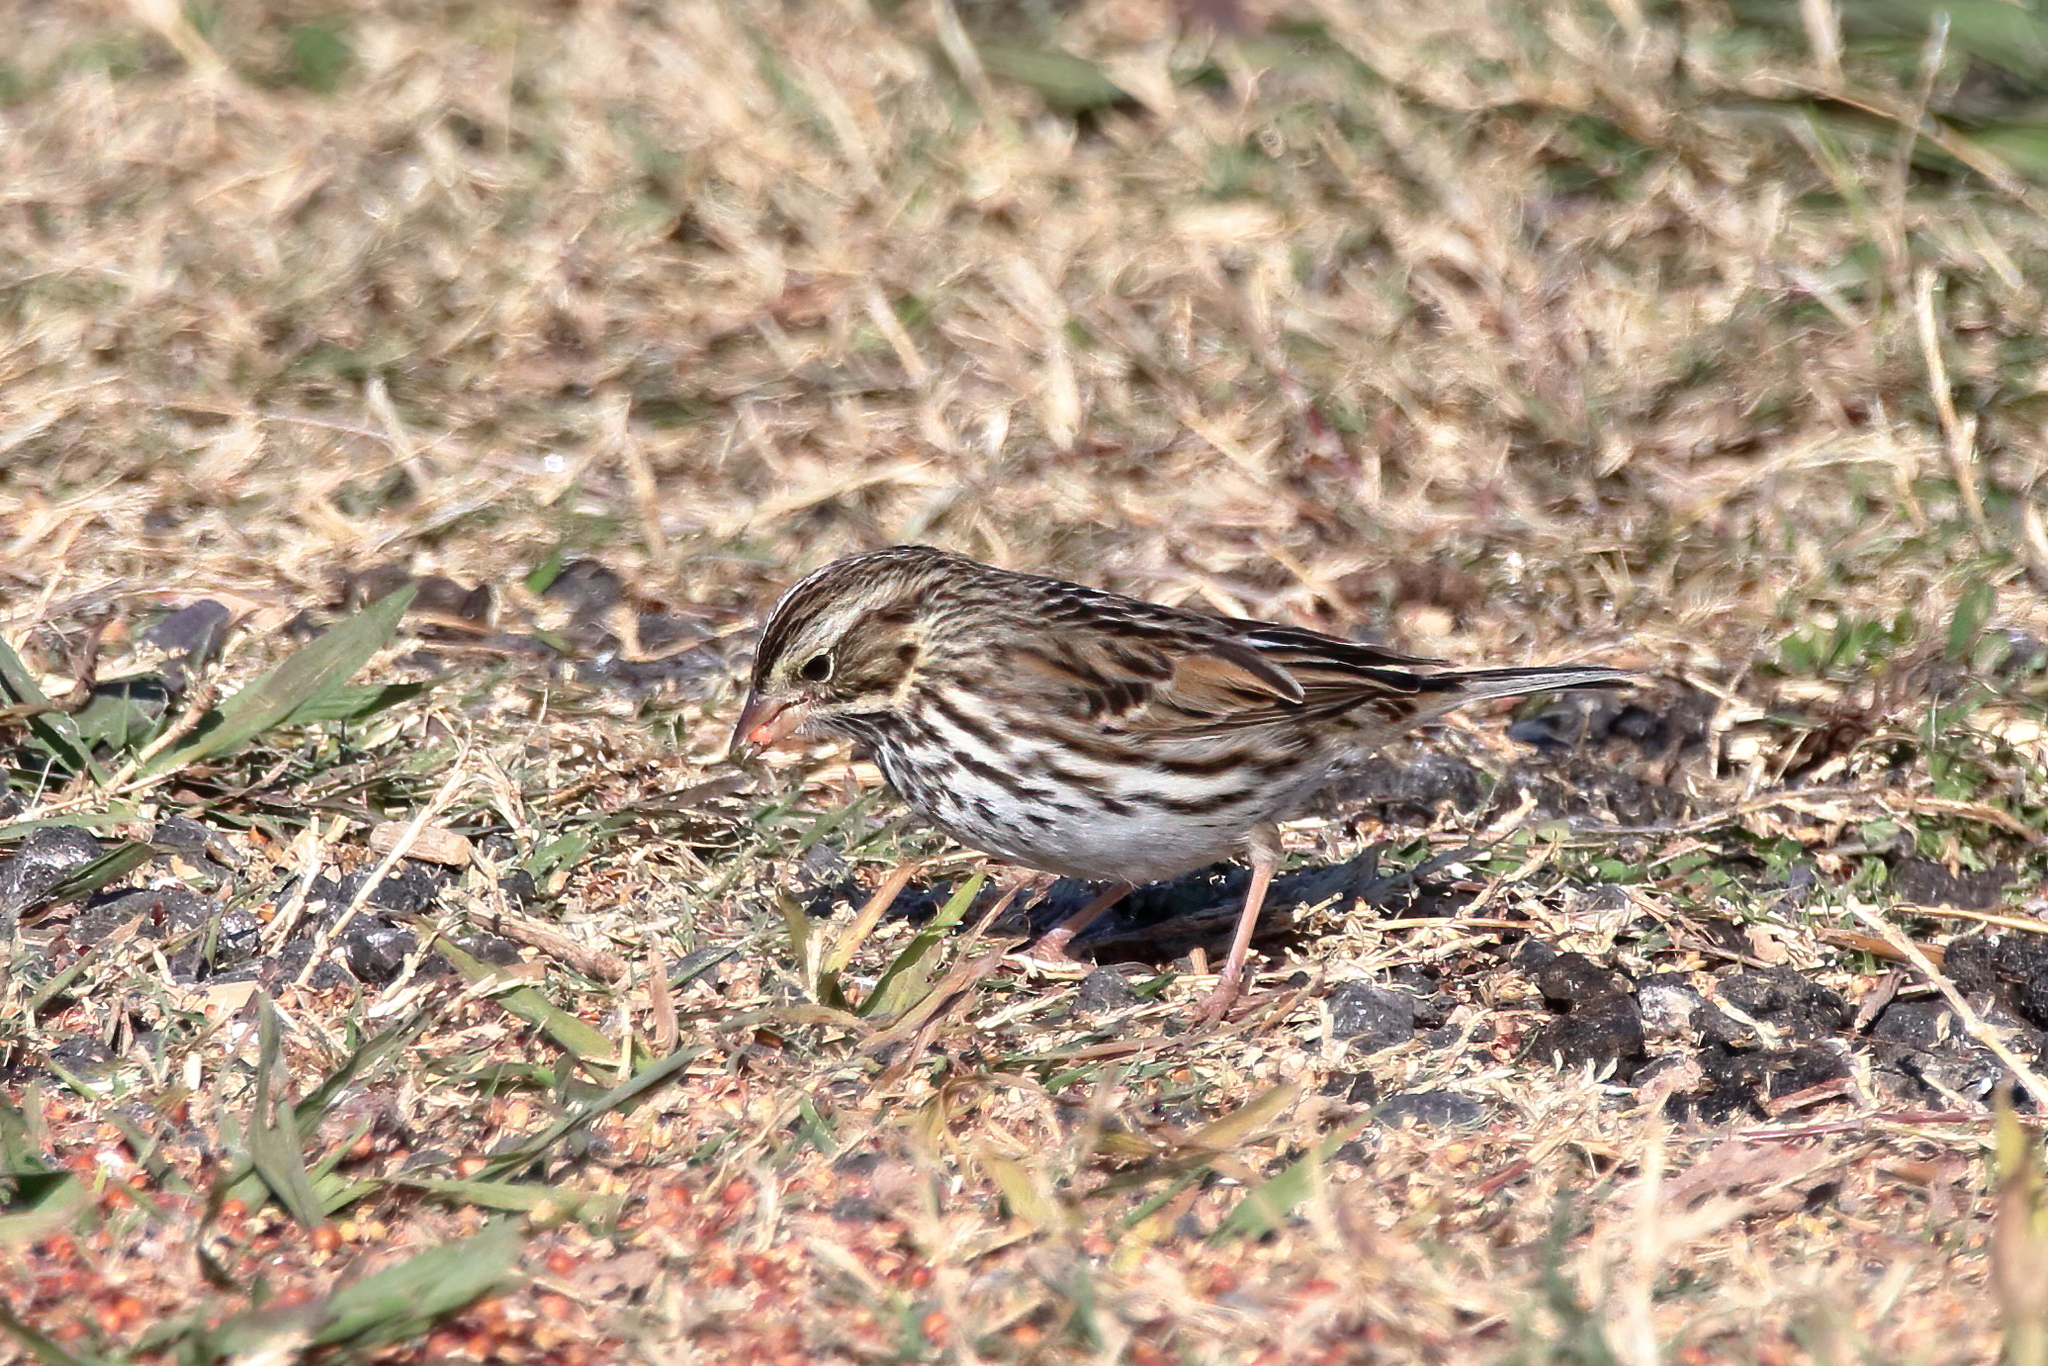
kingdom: Animalia
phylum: Chordata
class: Aves
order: Passeriformes
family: Passerellidae
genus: Passerculus
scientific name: Passerculus sandwichensis
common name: Savannah sparrow
